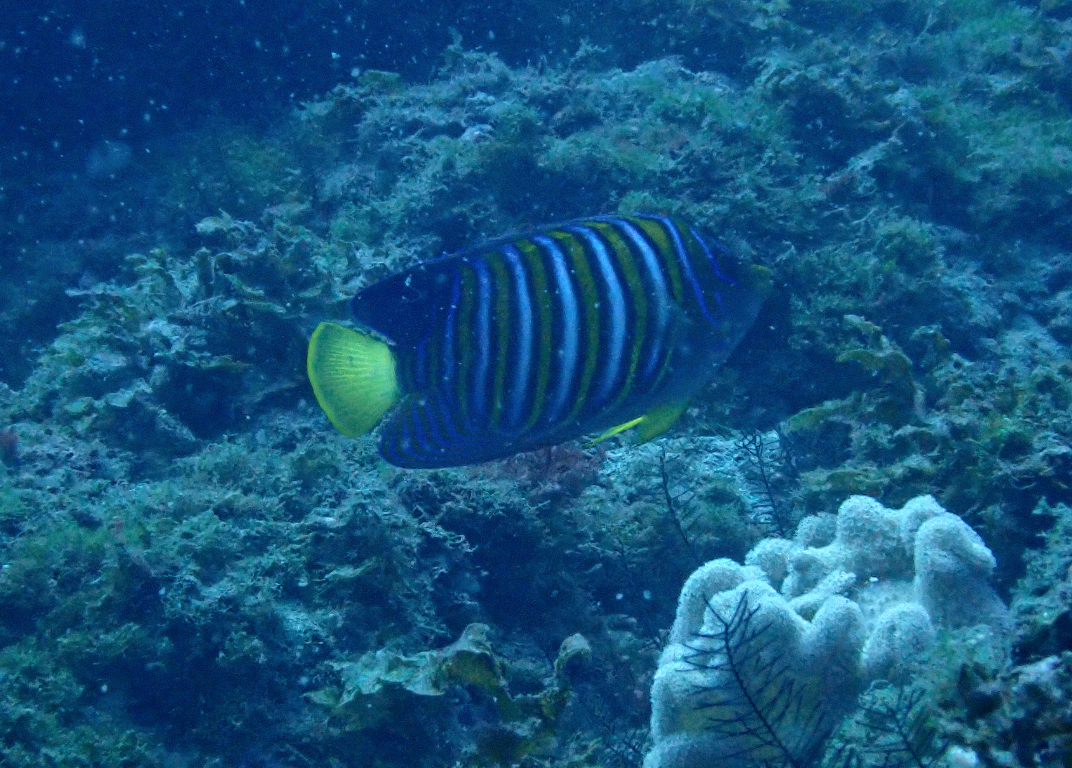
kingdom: Animalia
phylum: Chordata
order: Perciformes
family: Pomacanthidae
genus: Pygoplites
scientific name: Pygoplites diacanthus
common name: Regal angelfish
